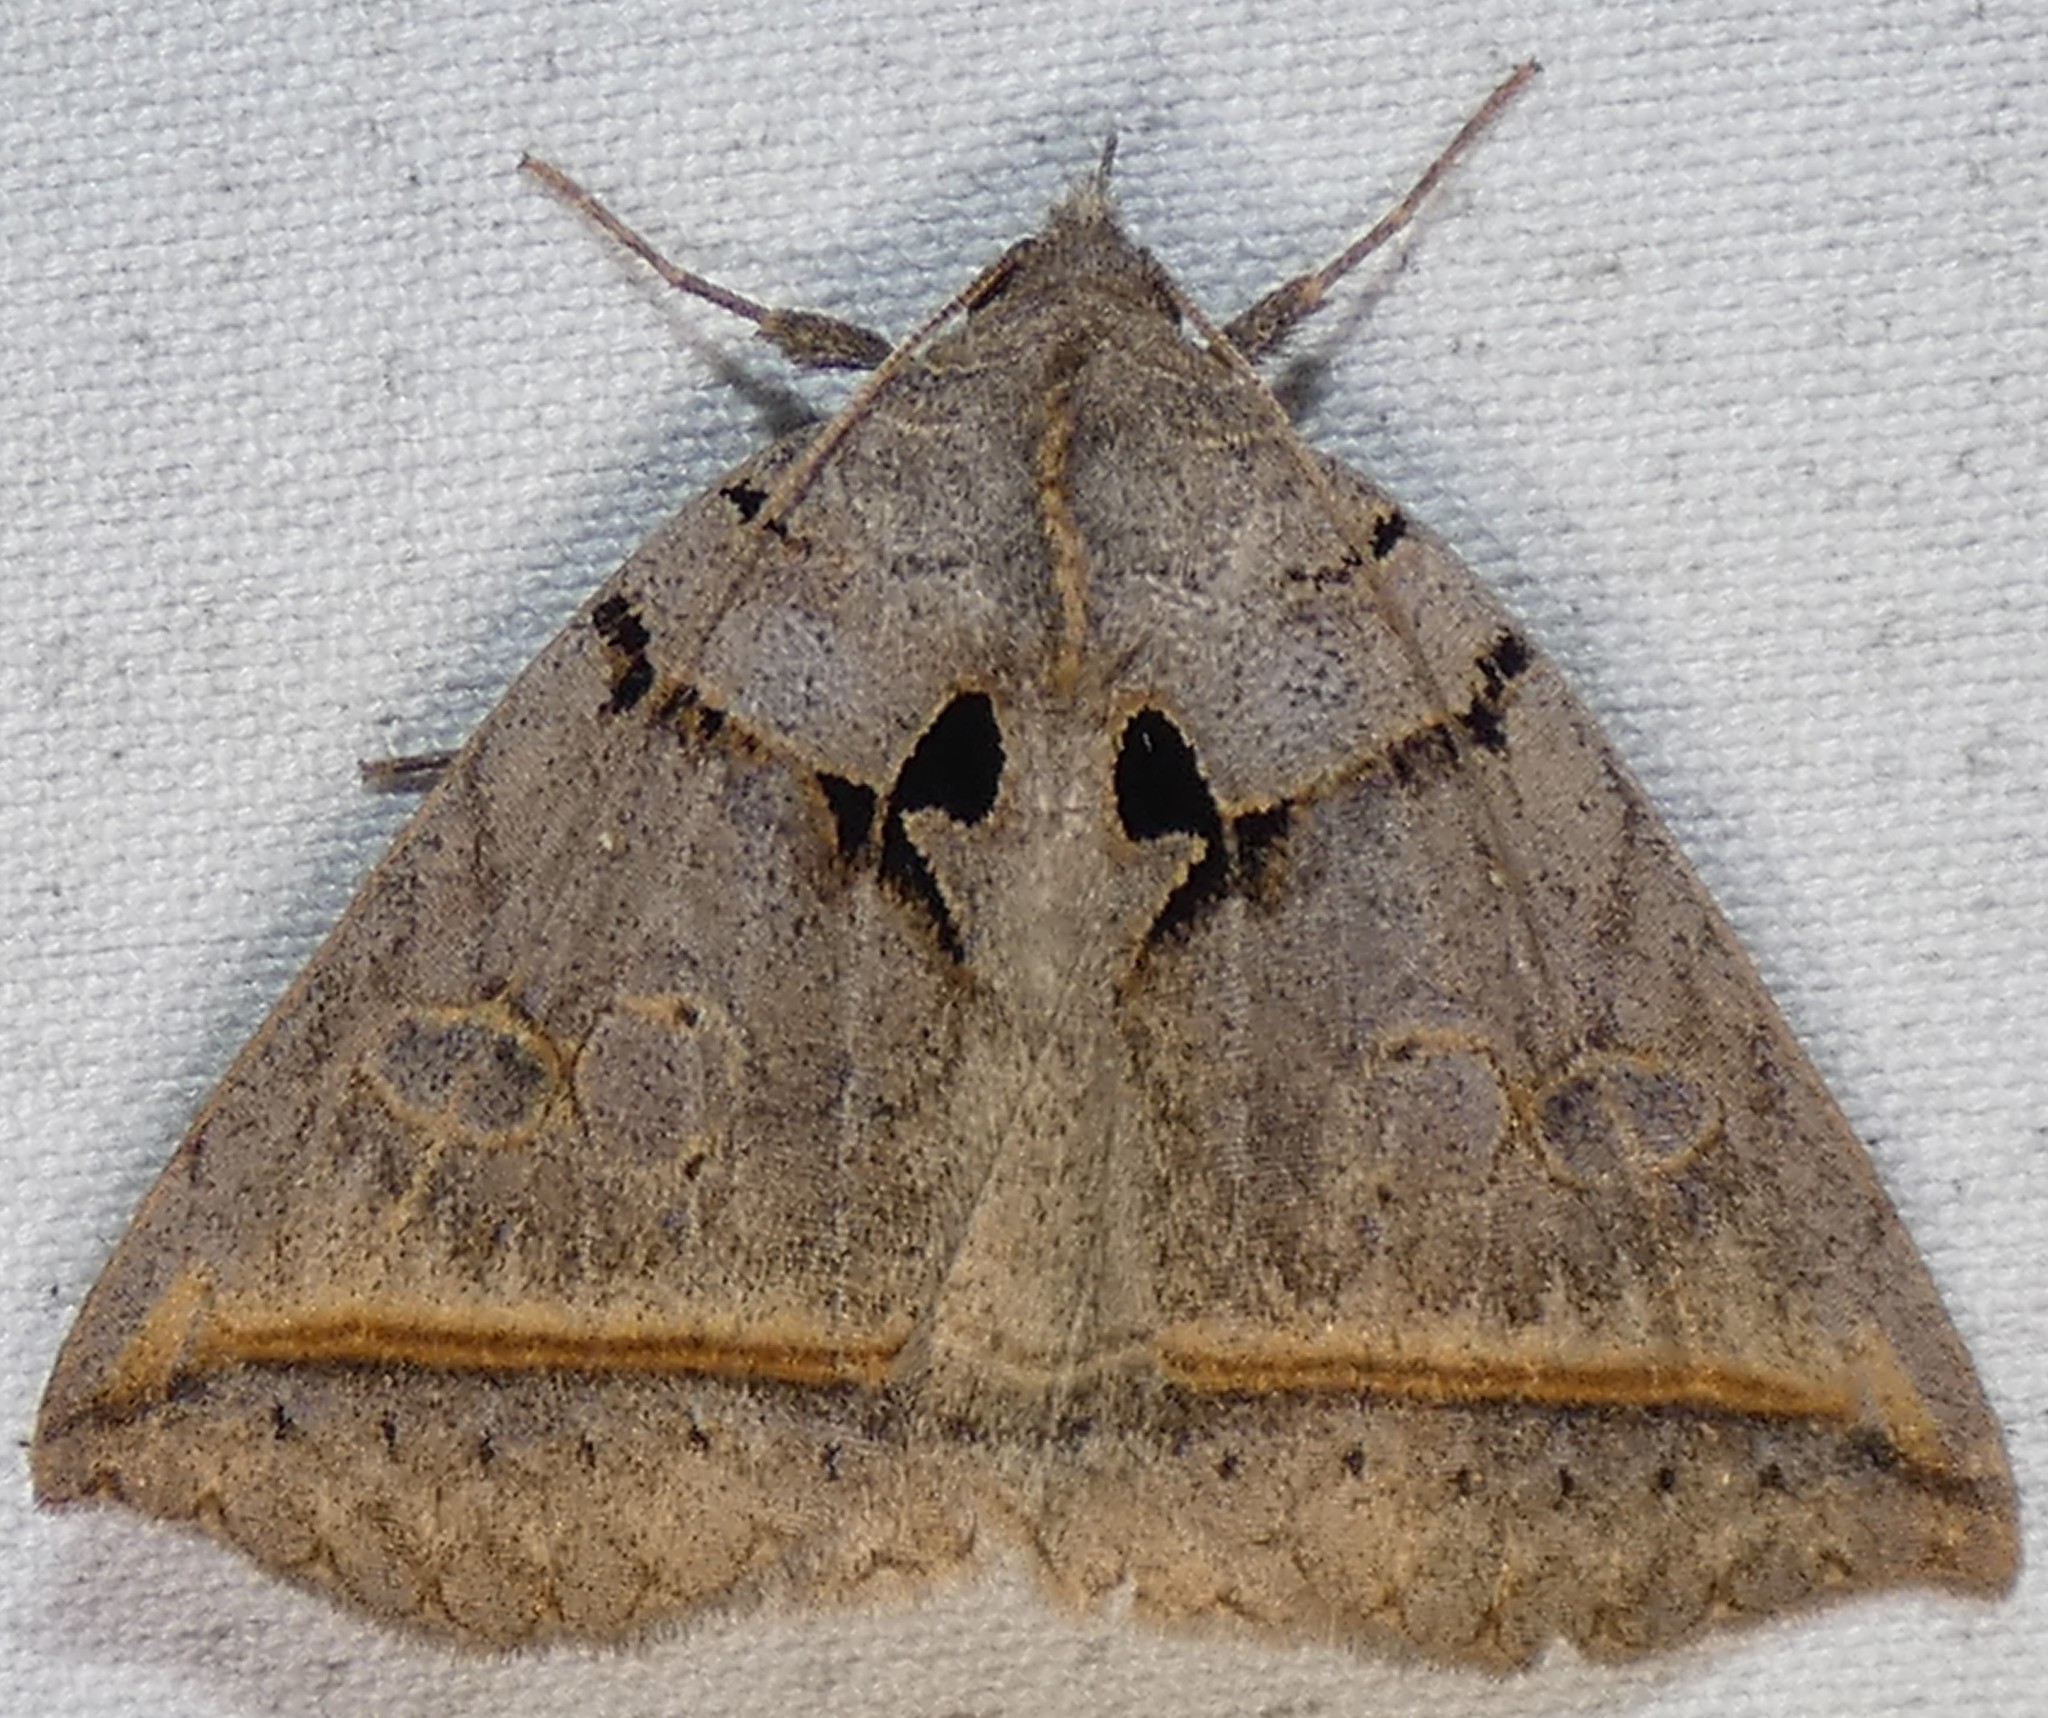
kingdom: Animalia
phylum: Arthropoda
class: Insecta
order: Lepidoptera
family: Erebidae
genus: Celiptera
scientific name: Celiptera frustulum
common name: Black bit moth
